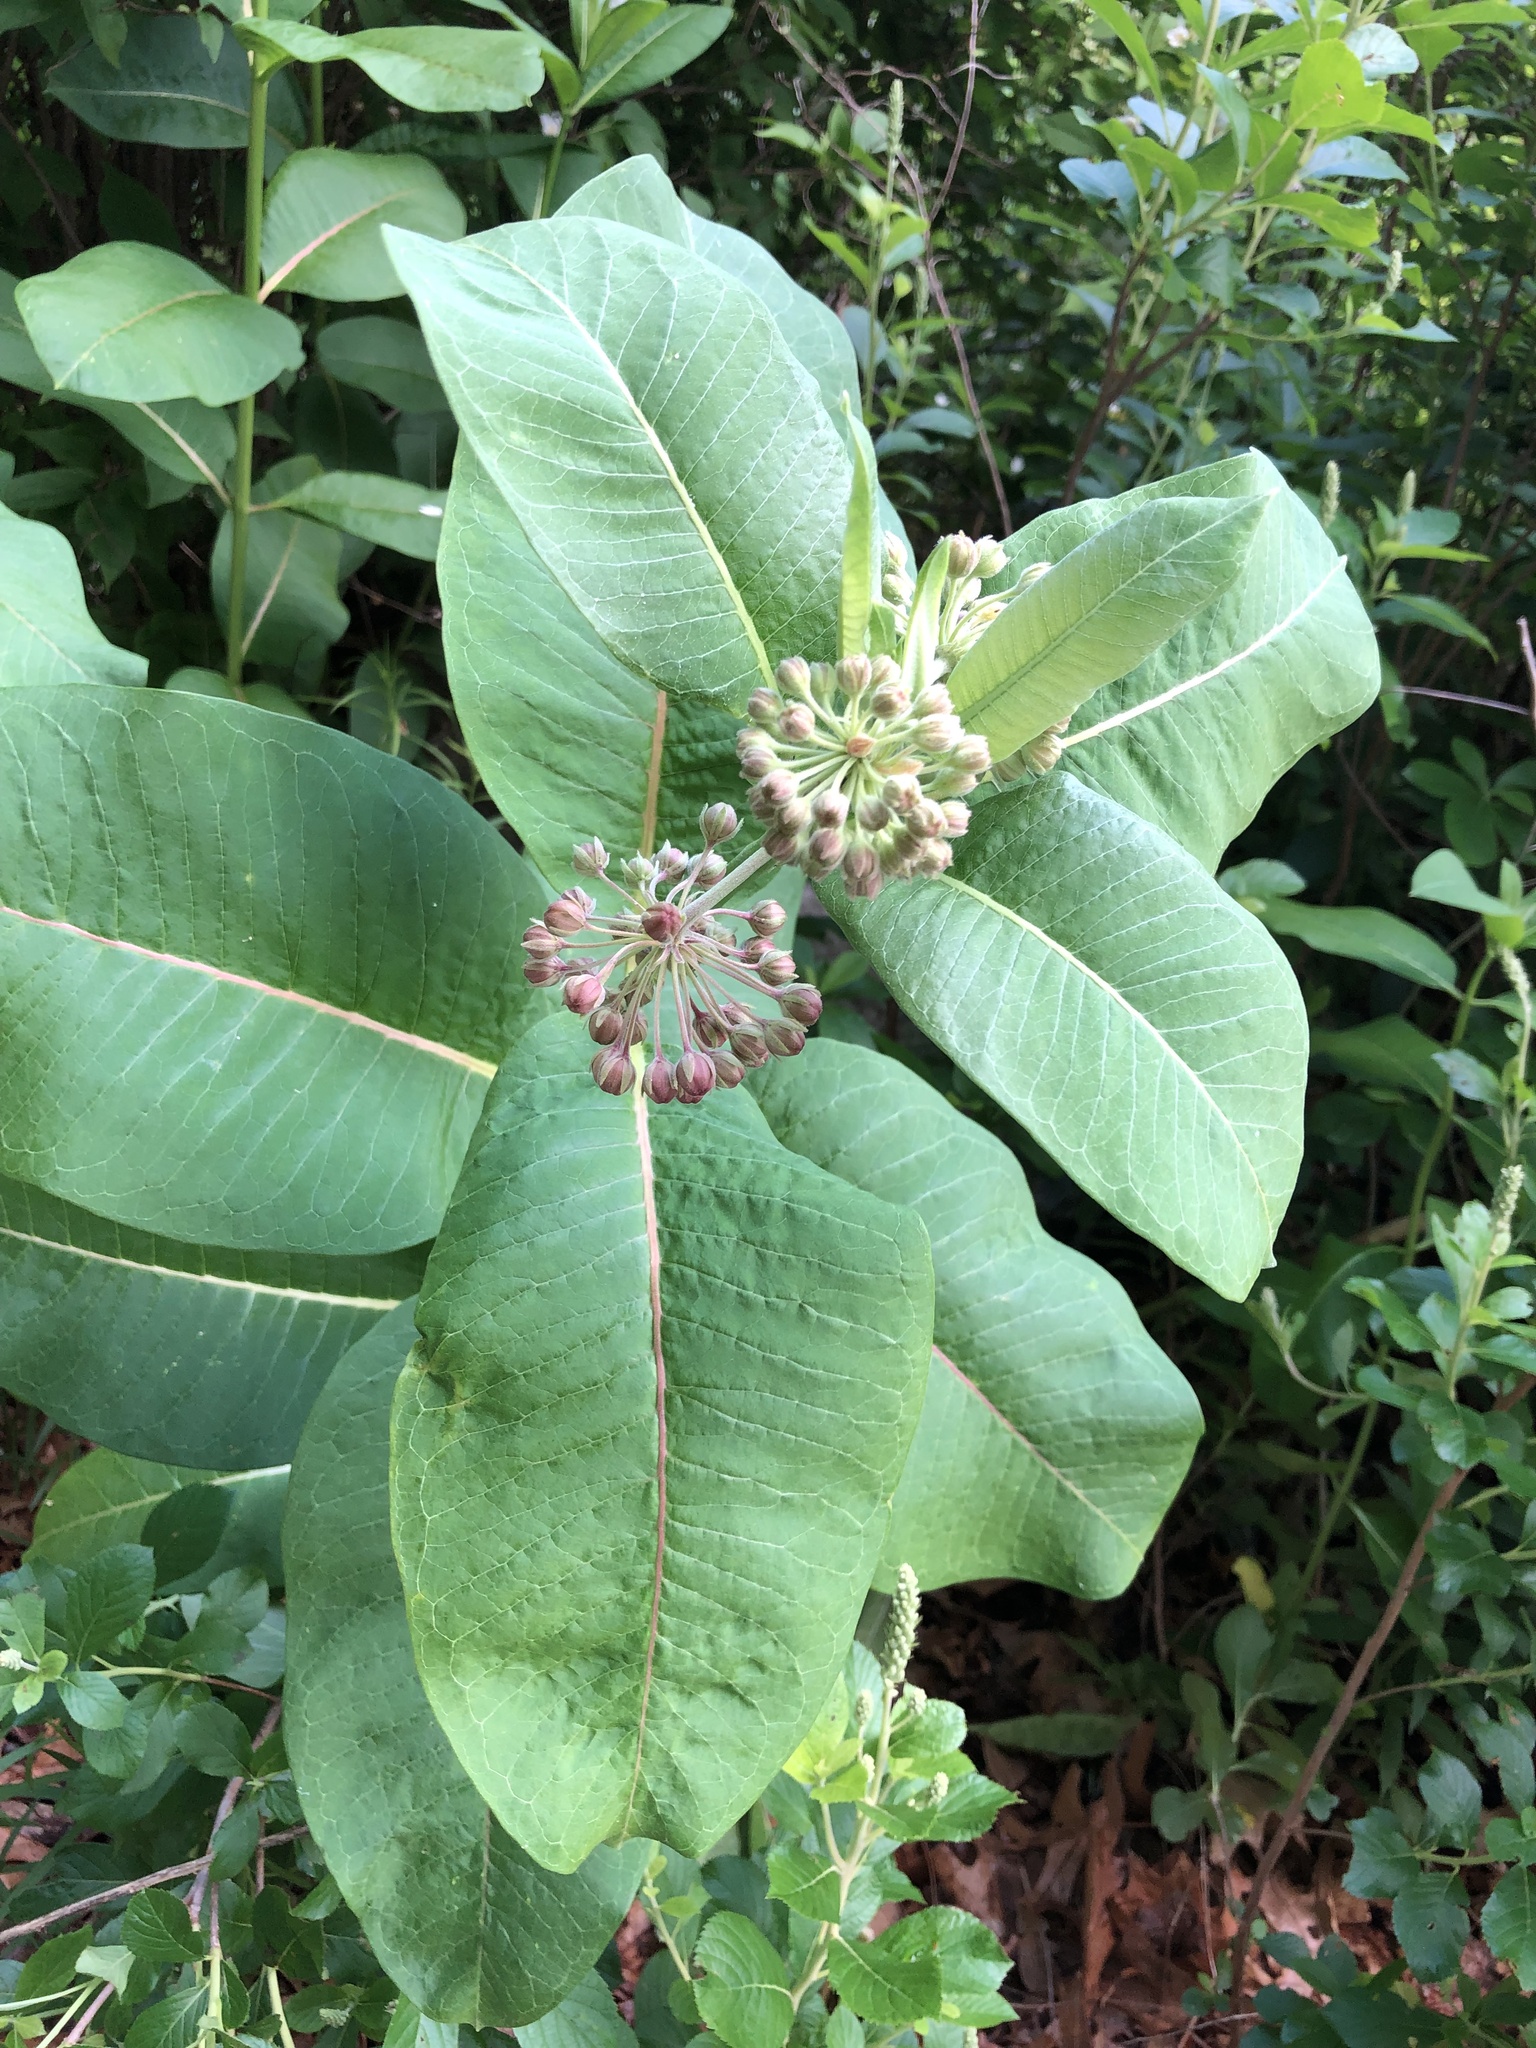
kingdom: Plantae
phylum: Tracheophyta
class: Magnoliopsida
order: Gentianales
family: Apocynaceae
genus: Asclepias
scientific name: Asclepias syriaca
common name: Common milkweed
